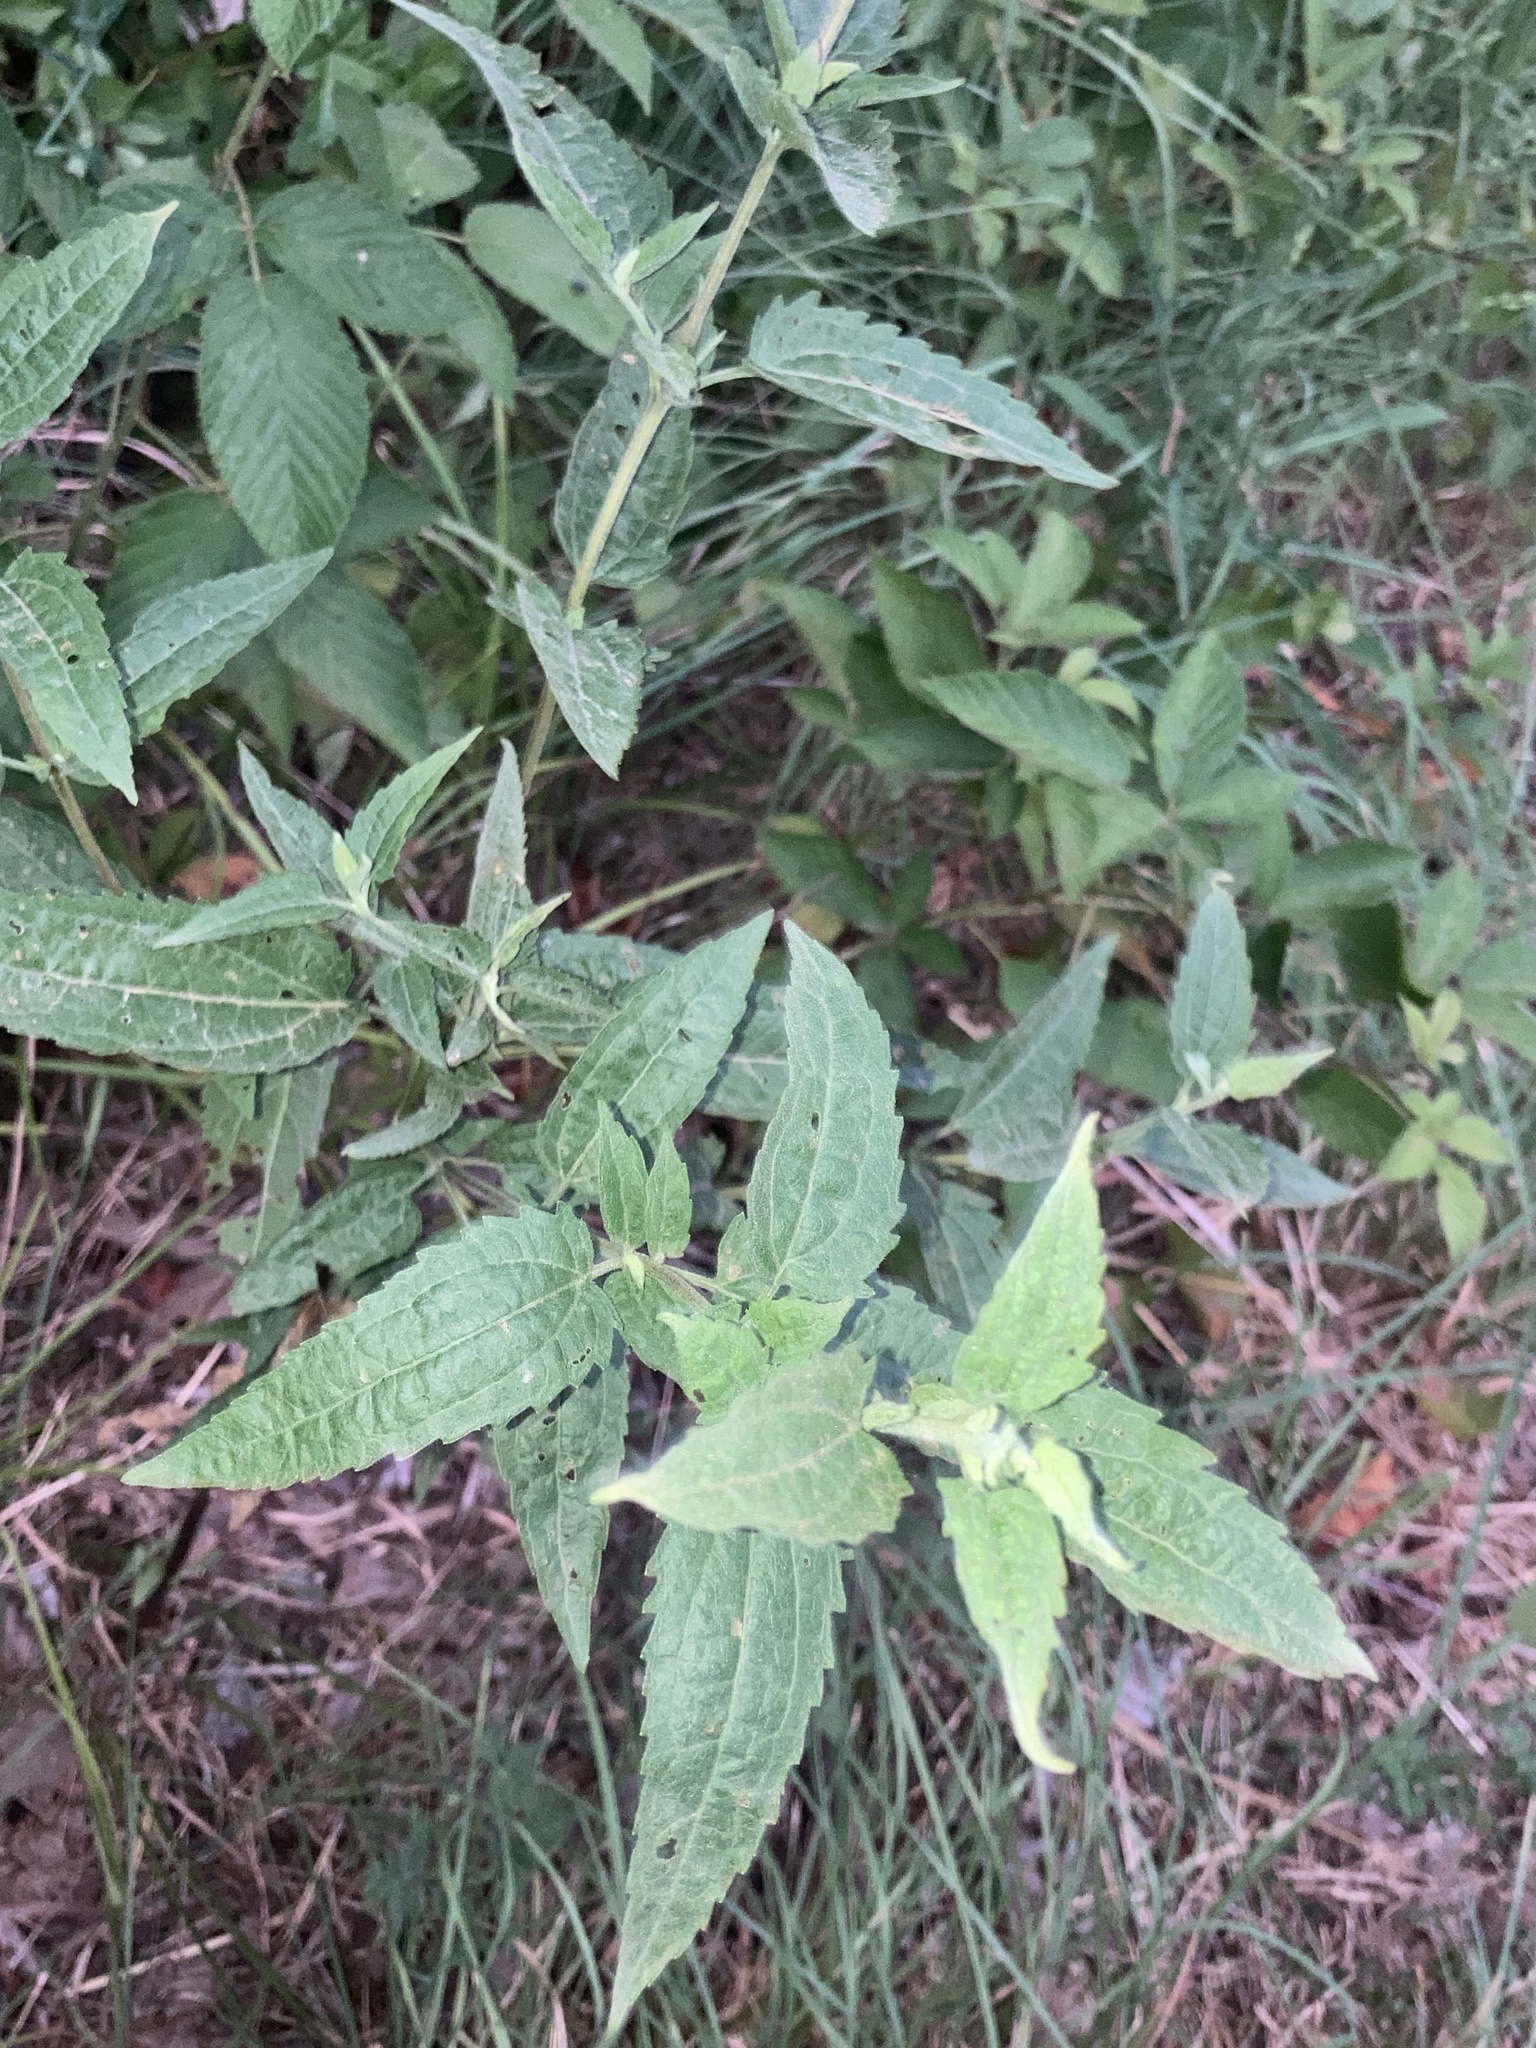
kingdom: Plantae
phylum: Tracheophyta
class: Magnoliopsida
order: Asterales
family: Asteraceae
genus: Eupatorium
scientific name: Eupatorium serotinum
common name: Late boneset
